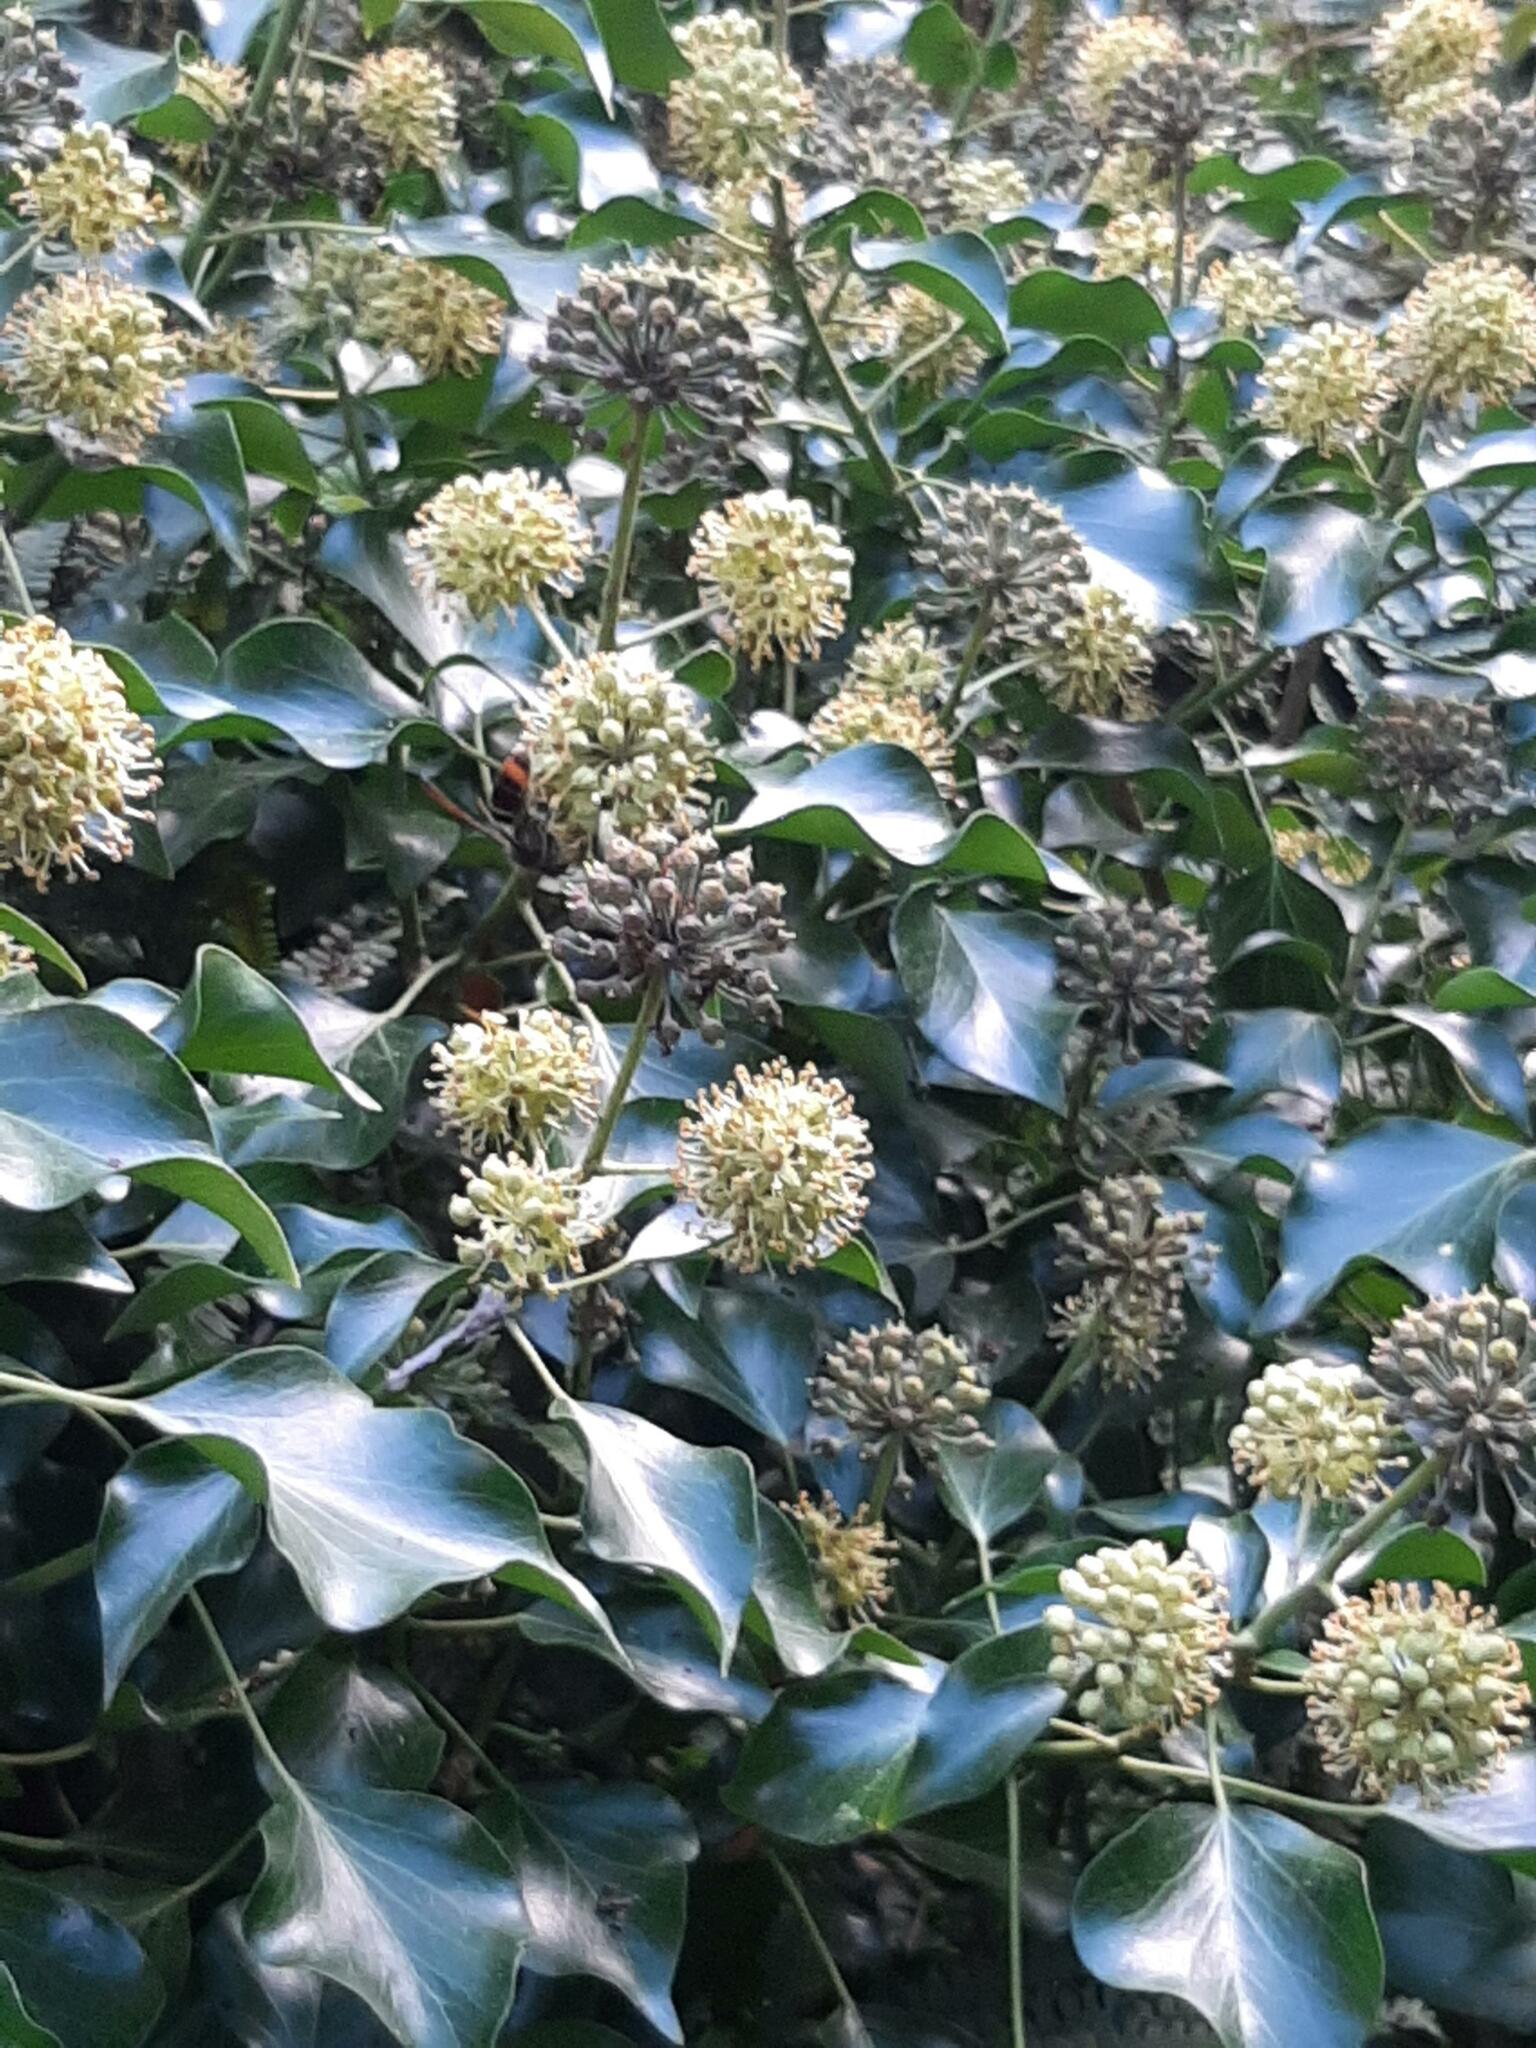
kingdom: Animalia
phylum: Arthropoda
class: Insecta
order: Hymenoptera
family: Vespidae
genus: Vespa
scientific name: Vespa velutina
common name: Asian hornet
